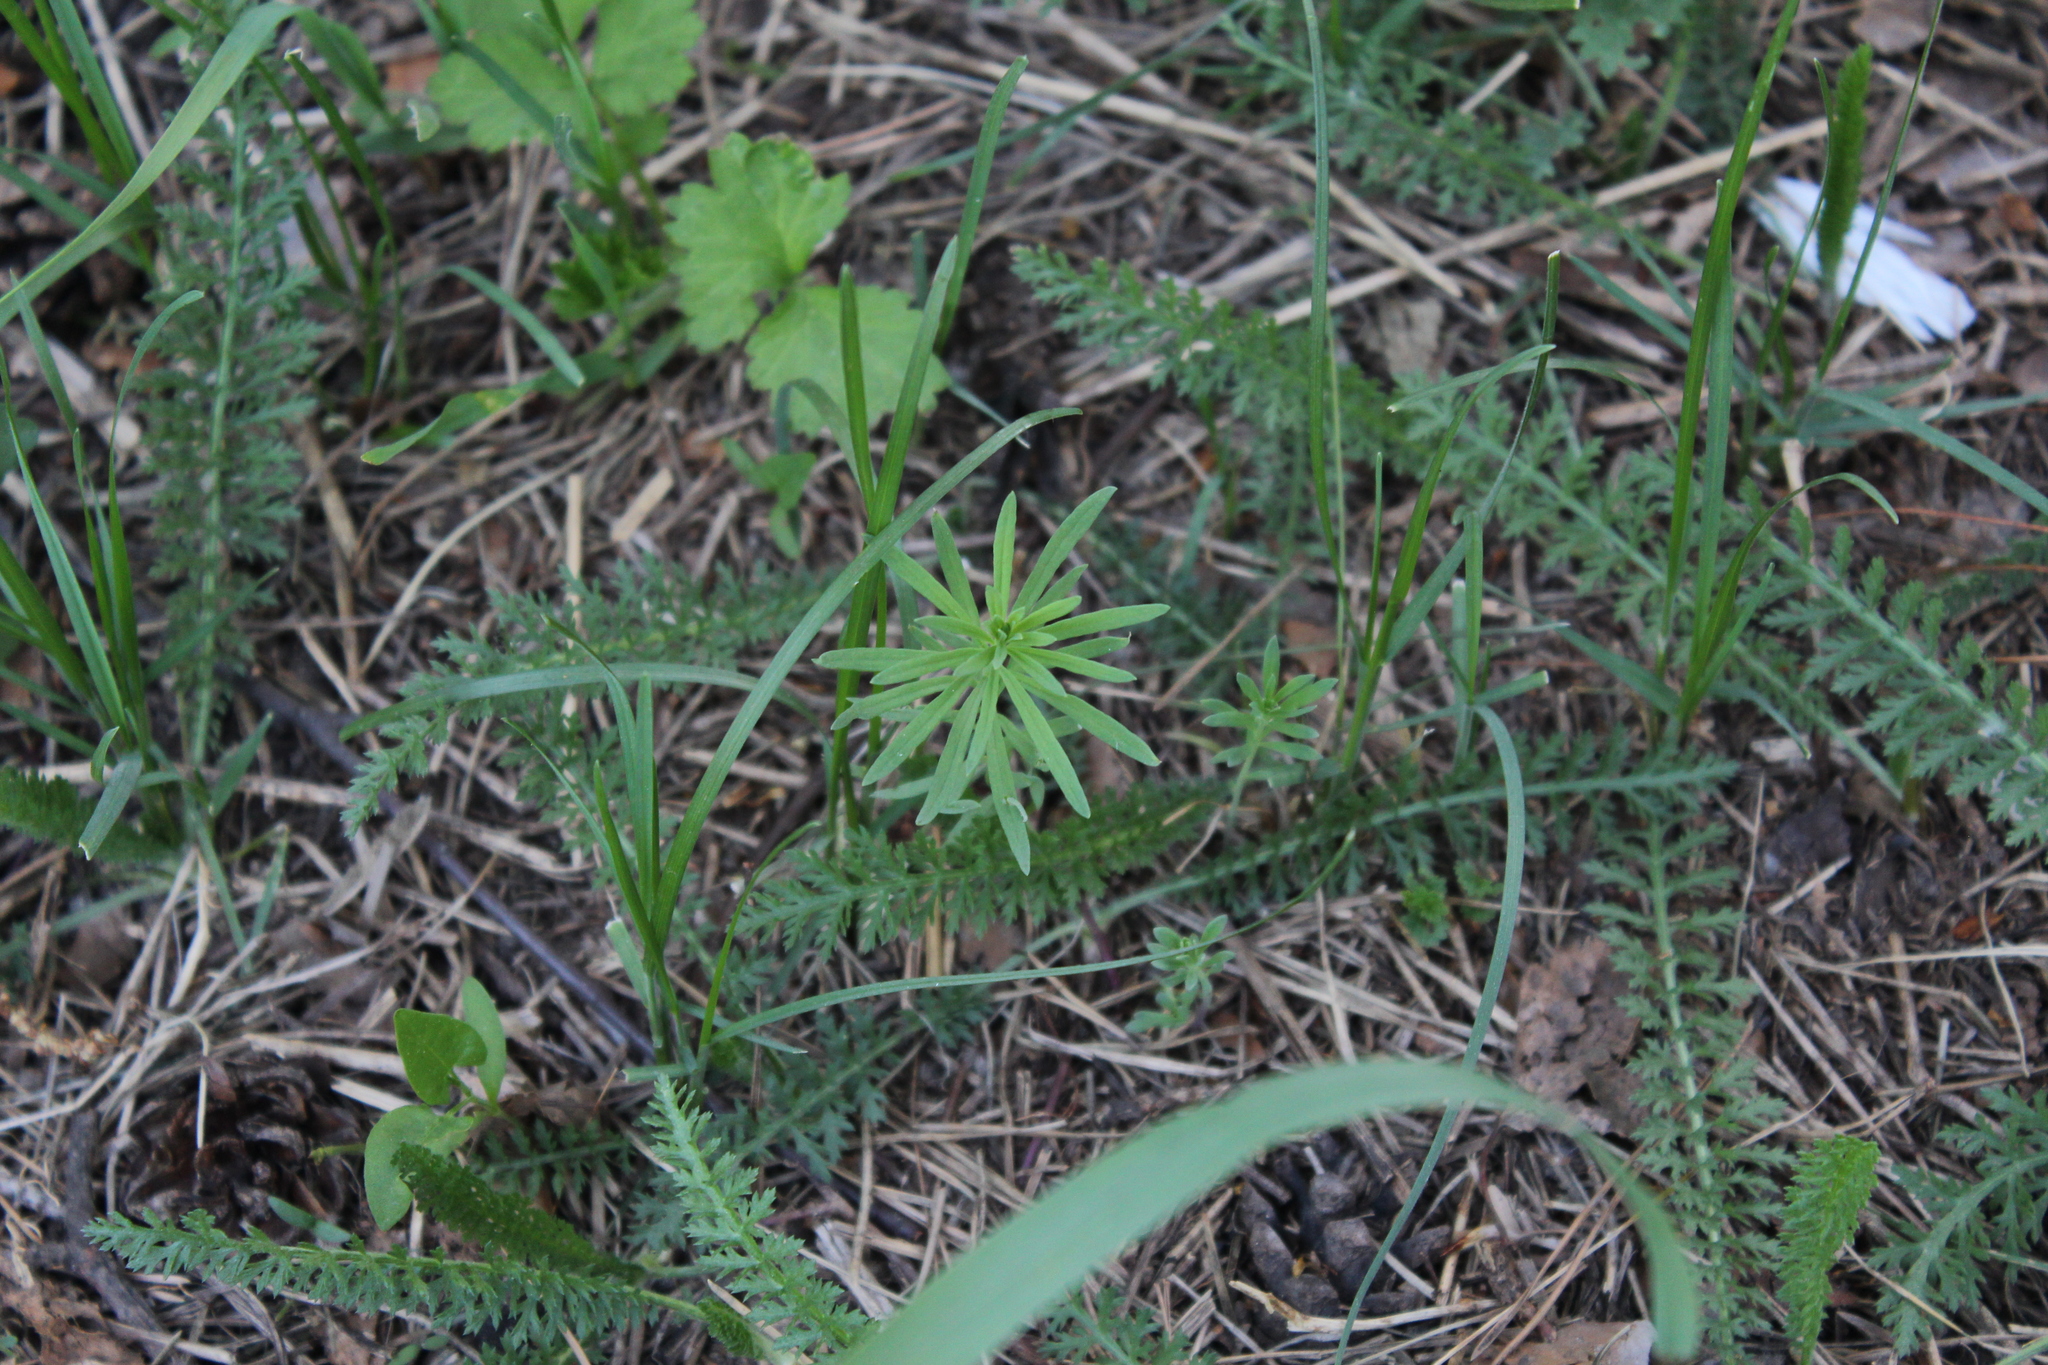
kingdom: Plantae
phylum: Tracheophyta
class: Magnoliopsida
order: Lamiales
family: Plantaginaceae
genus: Linaria
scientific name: Linaria vulgaris
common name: Butter and eggs
